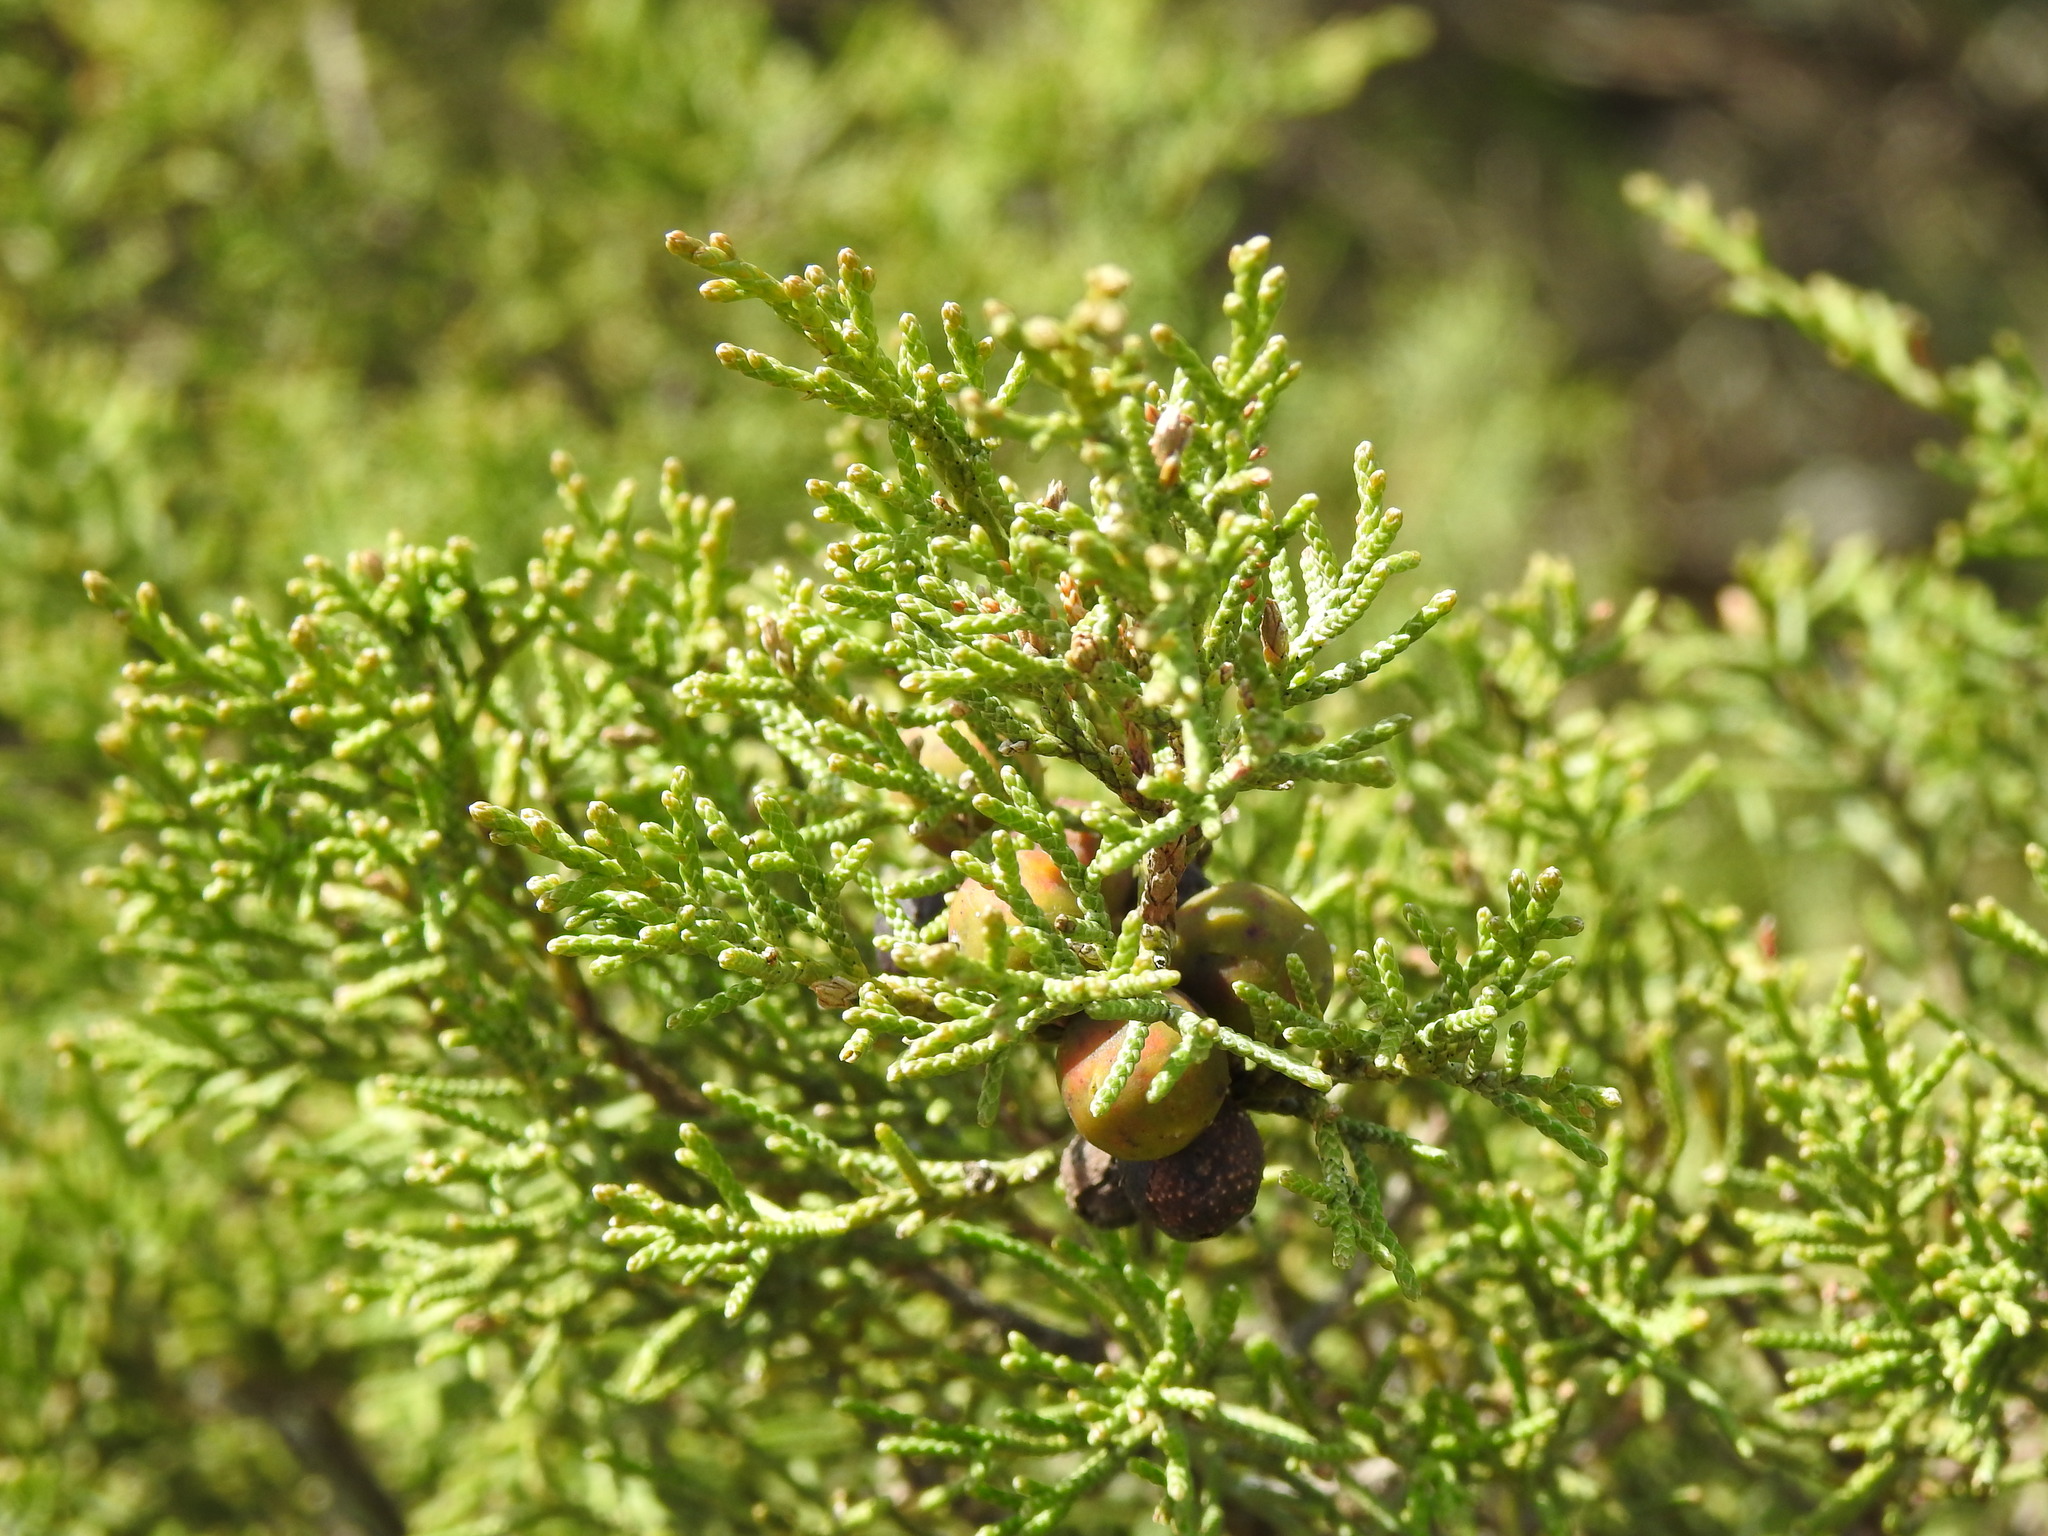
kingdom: Plantae
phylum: Tracheophyta
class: Pinopsida
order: Pinales
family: Cupressaceae
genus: Juniperus
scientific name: Juniperus phoenicea
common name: Phoenician juniper
